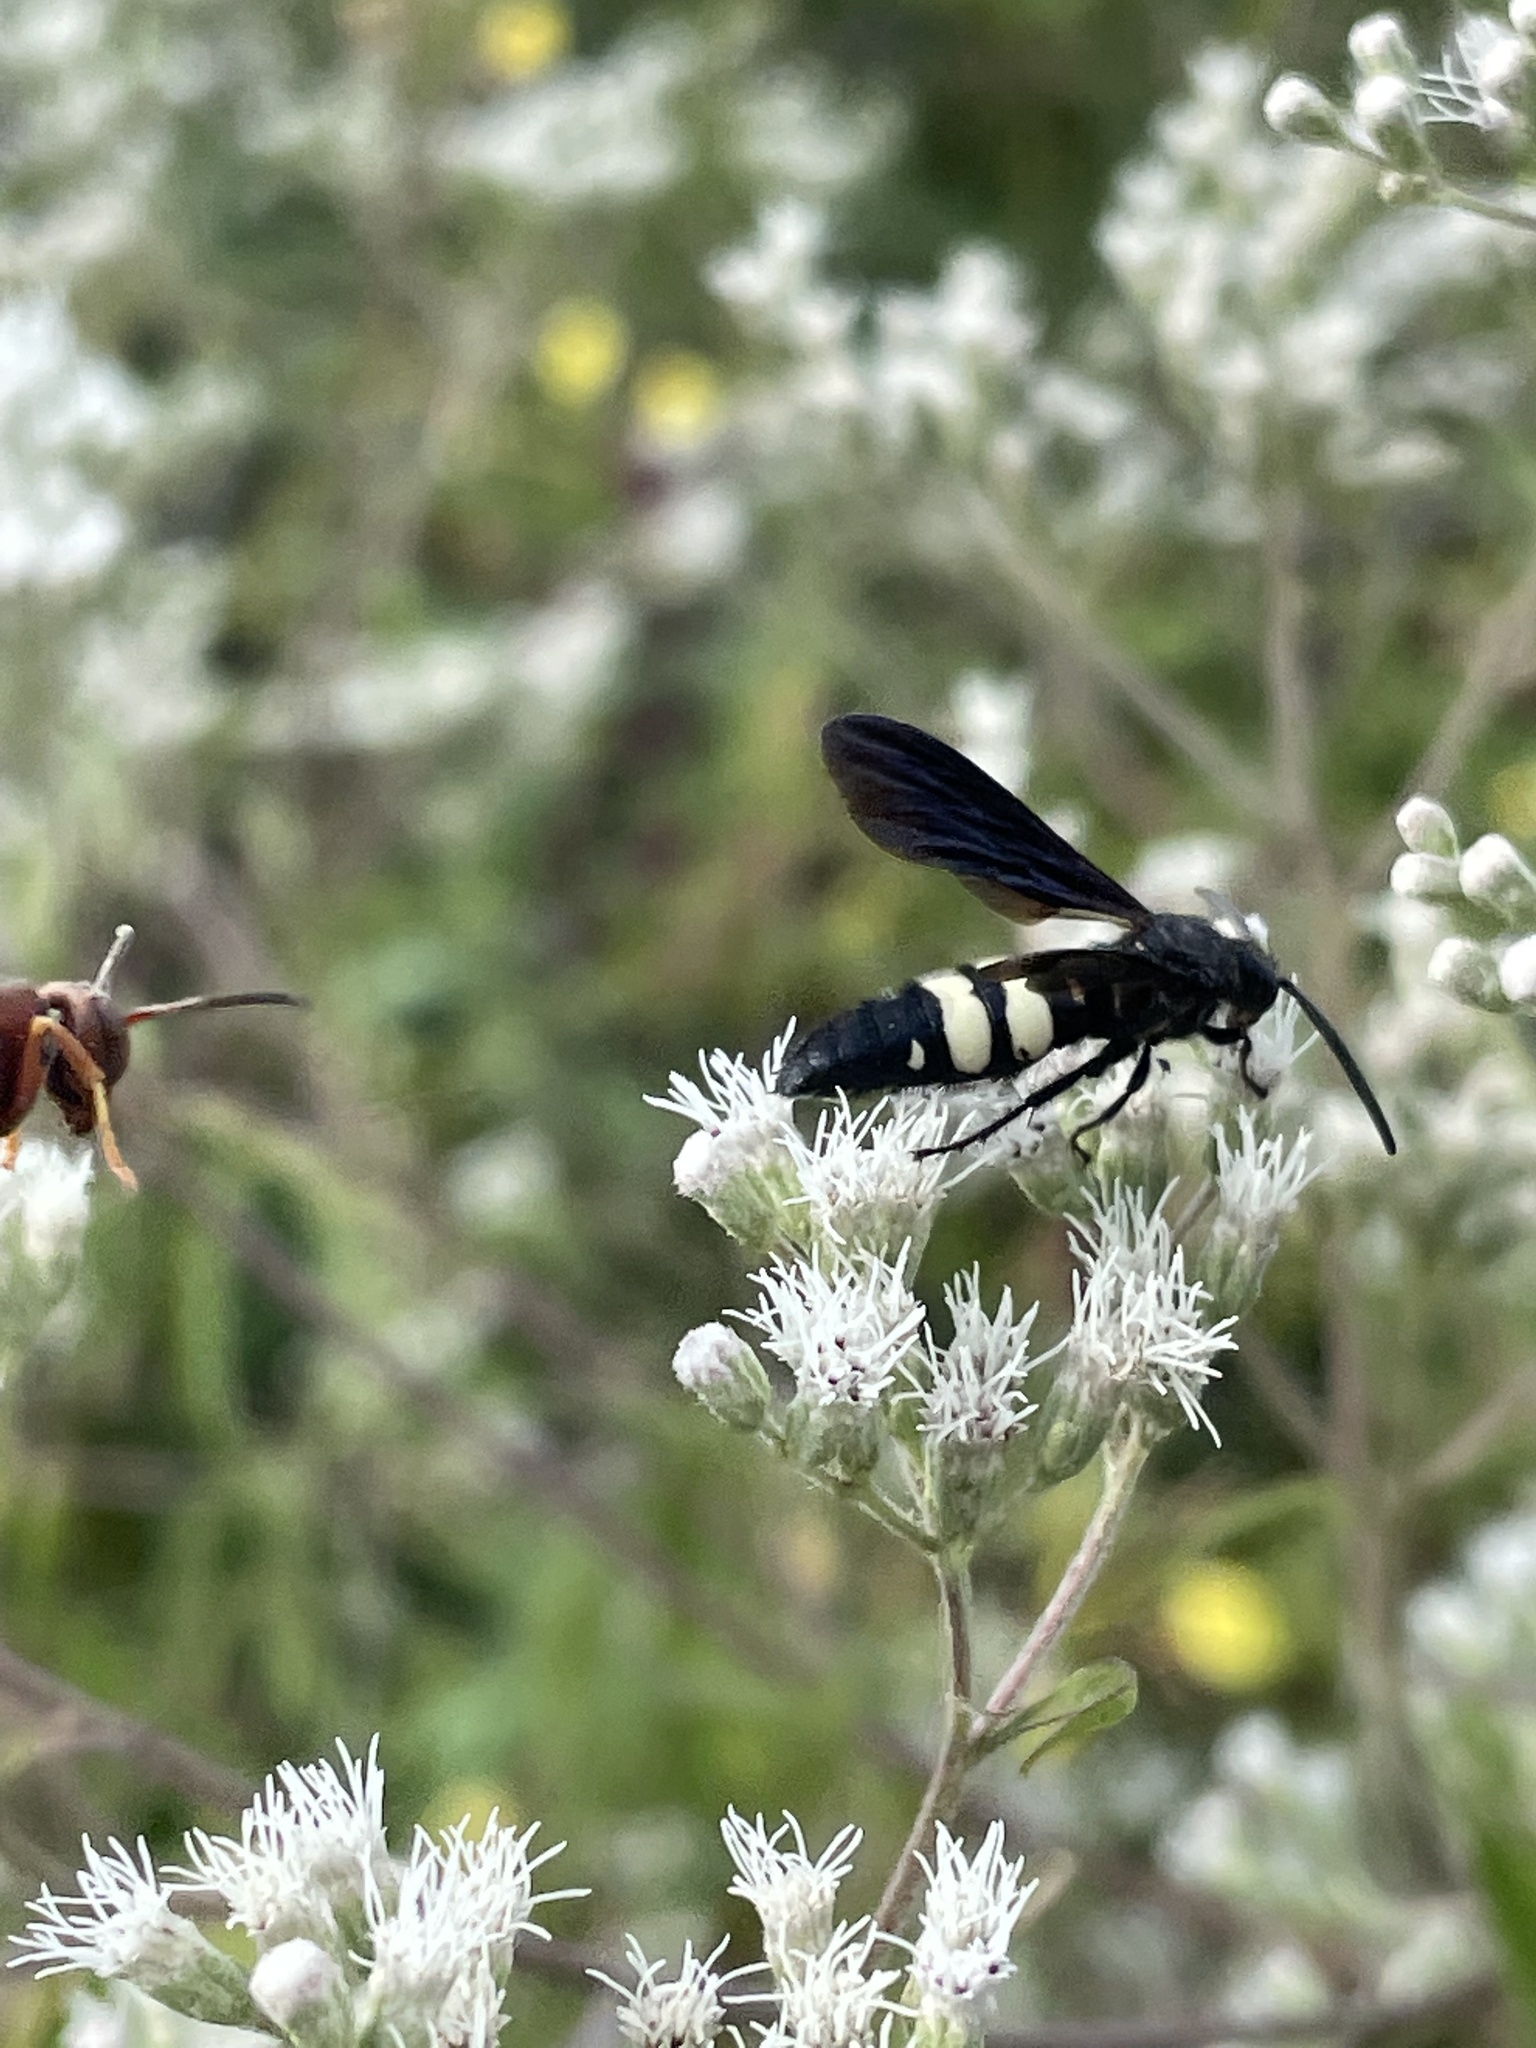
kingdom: Animalia
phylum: Arthropoda
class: Insecta
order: Hymenoptera
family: Scoliidae
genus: Scolia
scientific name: Scolia bicincta
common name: Double-banded scoliid wasp
